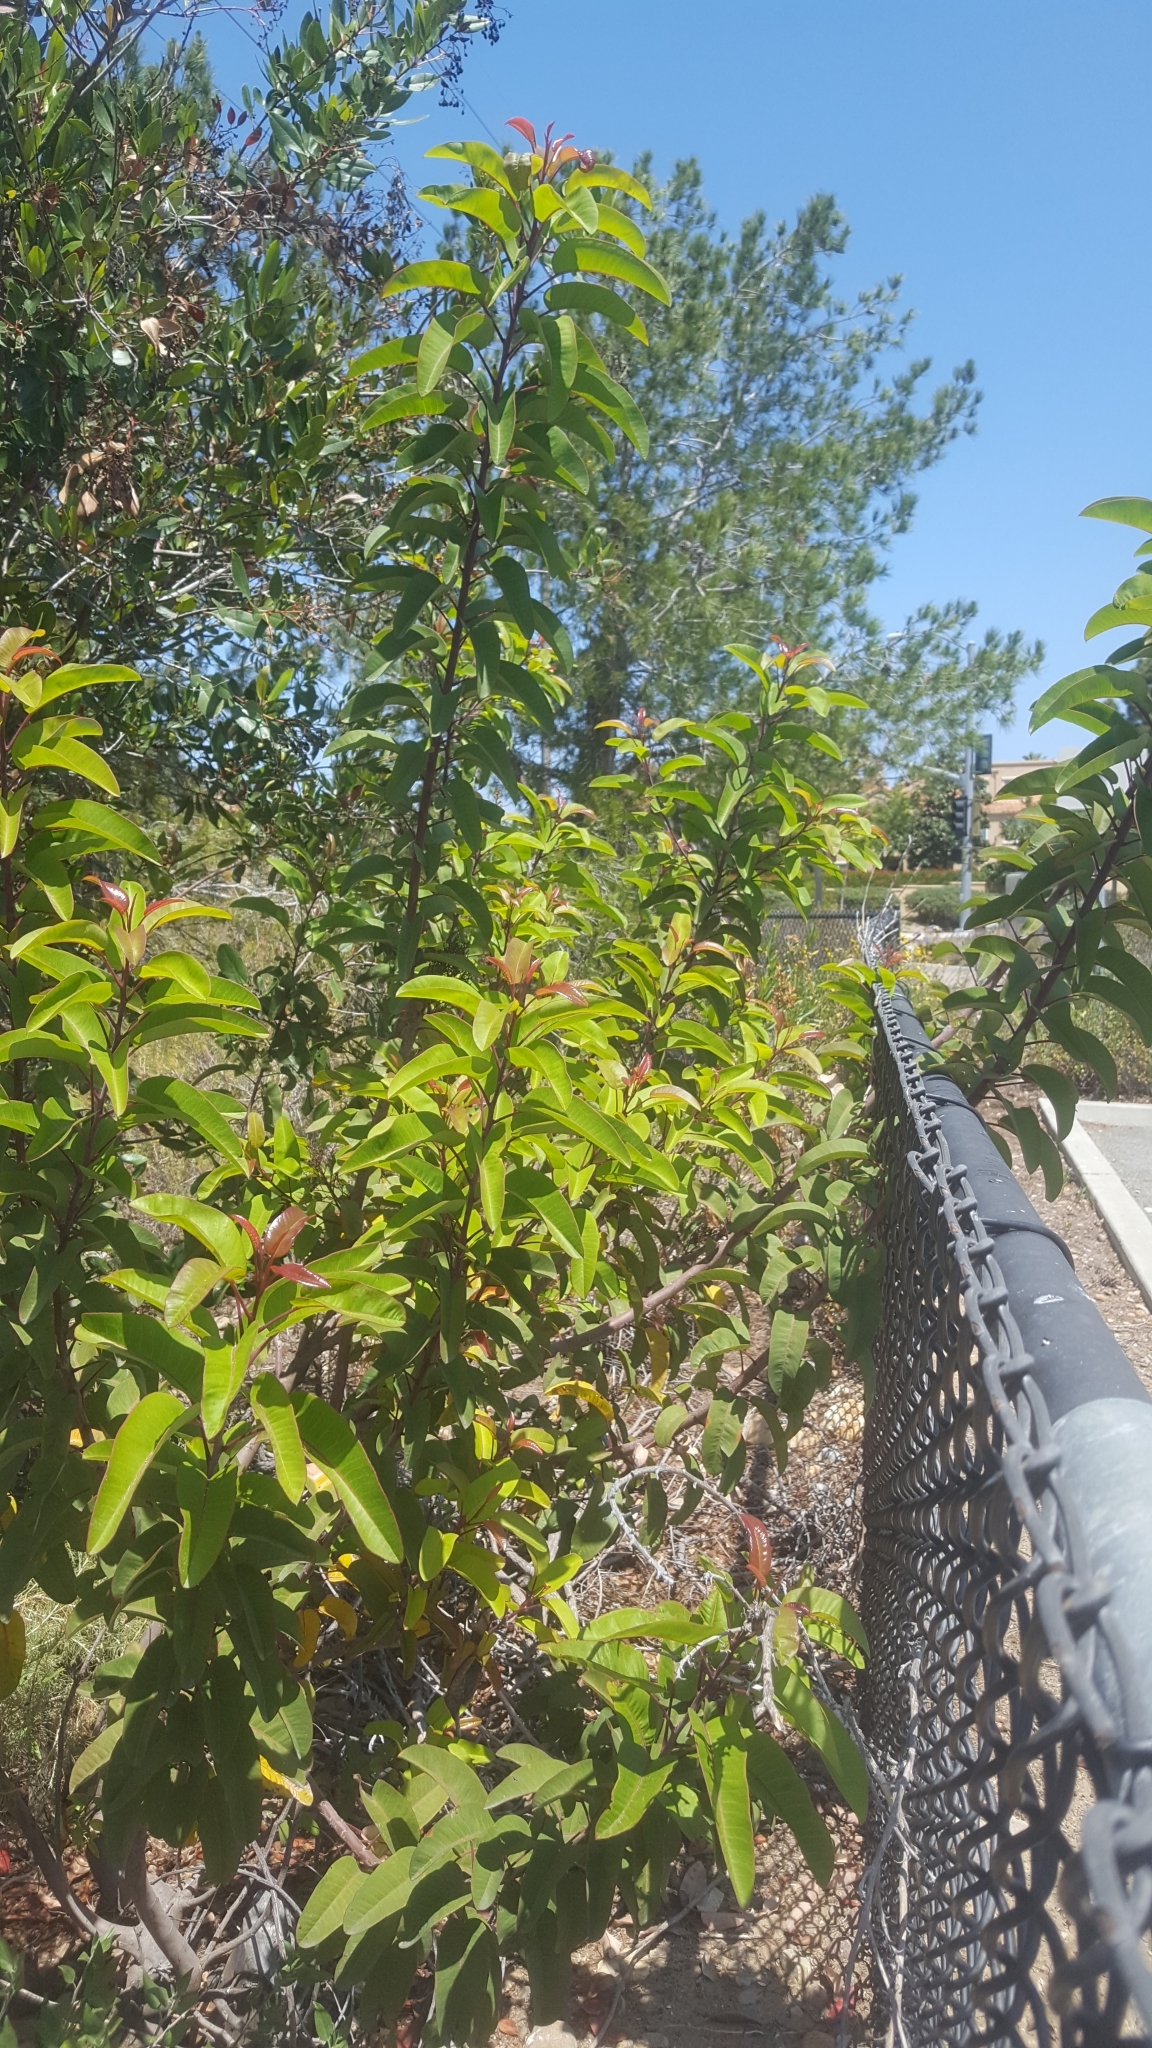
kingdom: Plantae
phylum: Tracheophyta
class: Magnoliopsida
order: Sapindales
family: Anacardiaceae
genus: Malosma
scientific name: Malosma laurina
